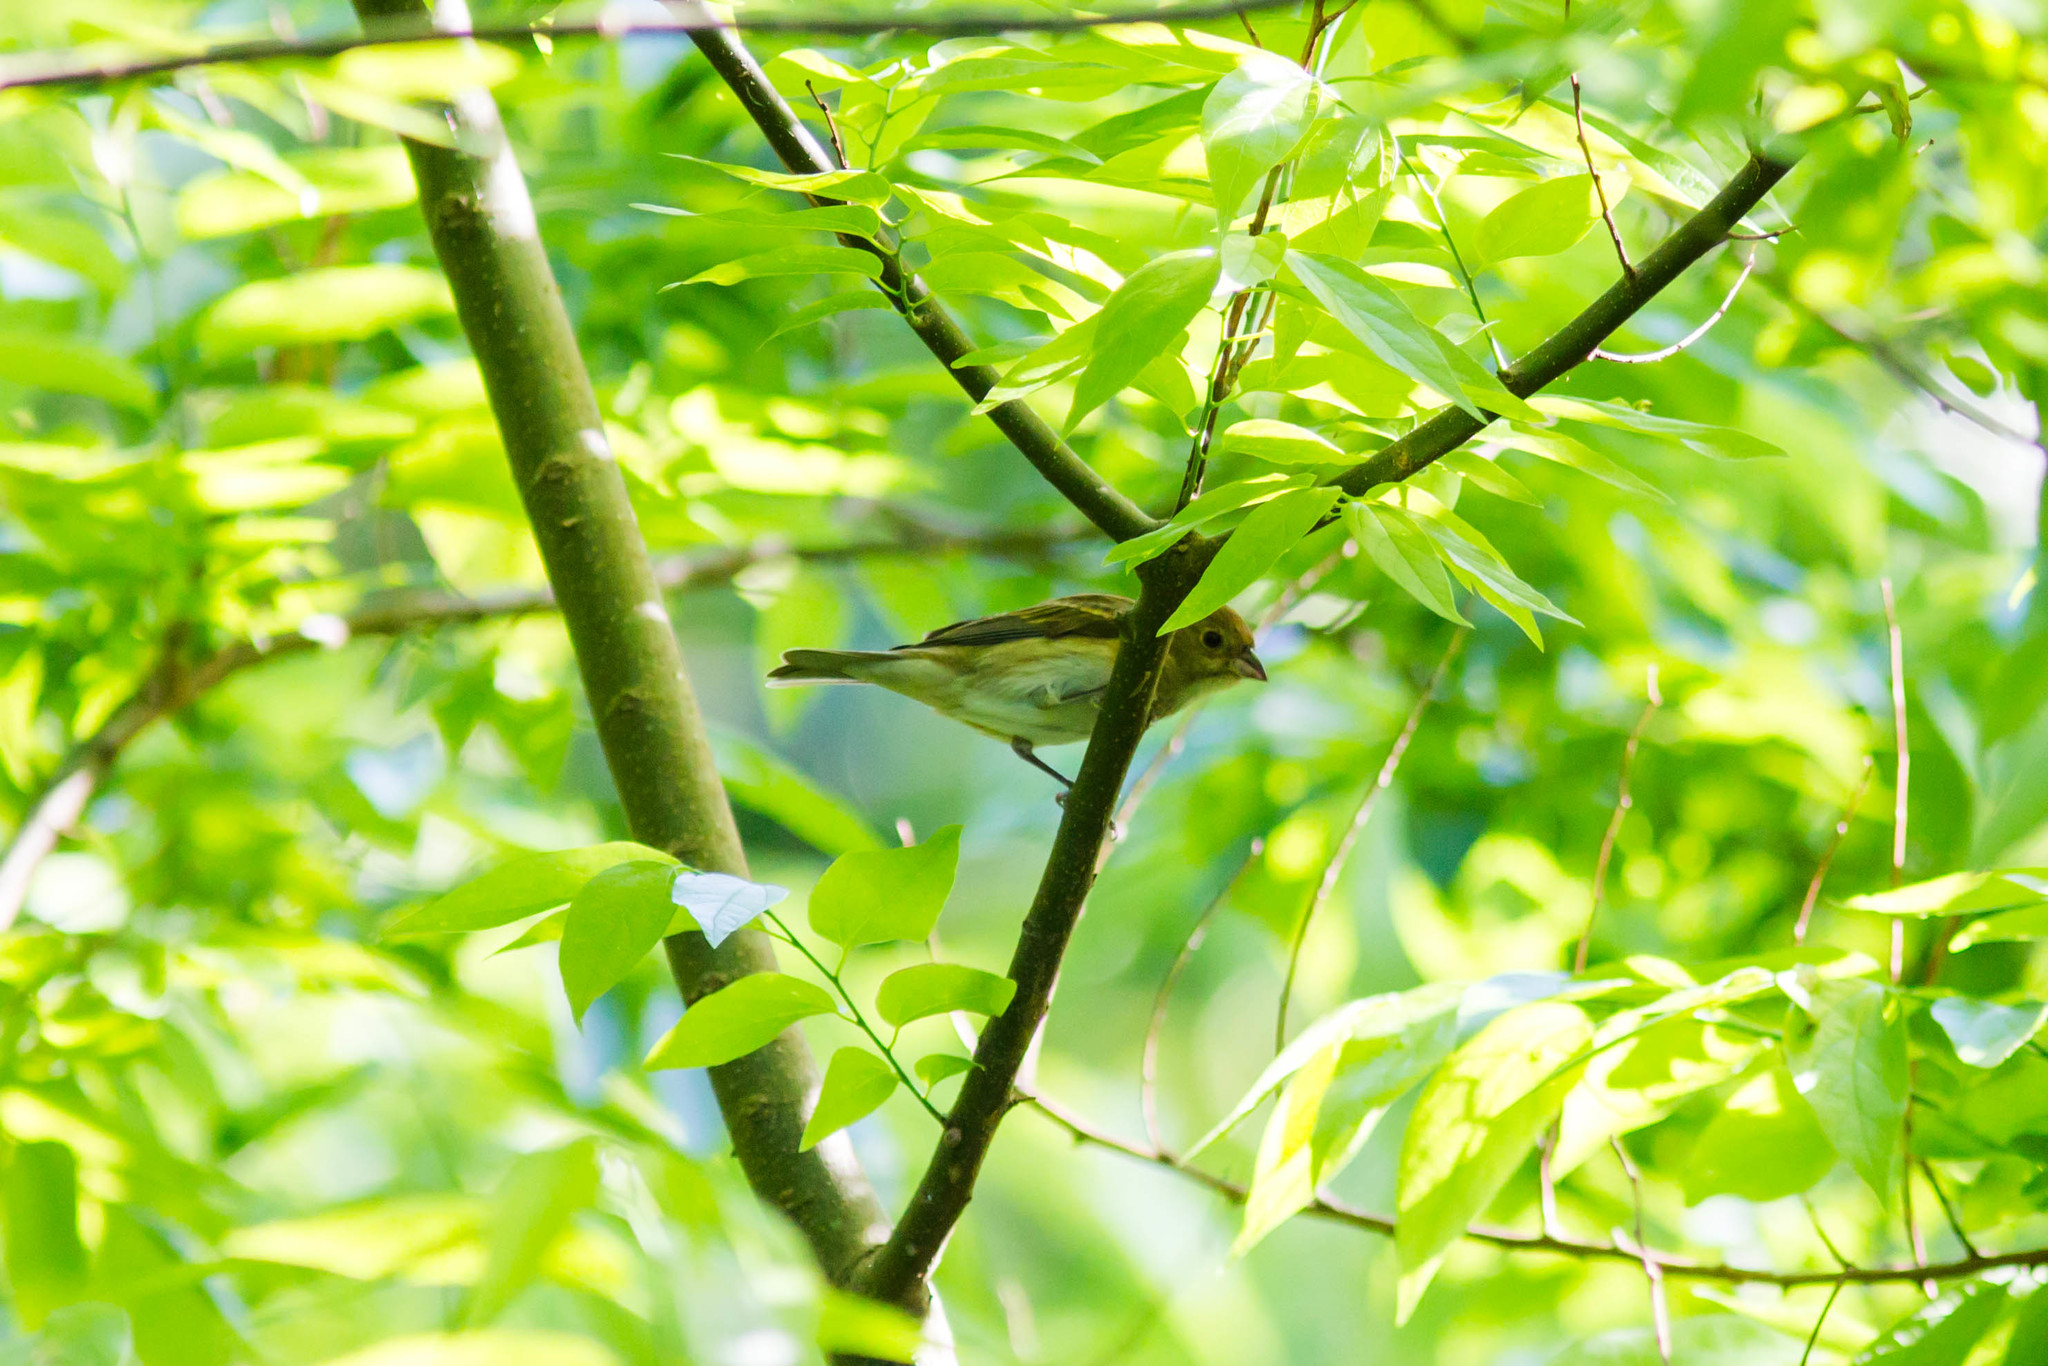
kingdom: Animalia
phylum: Chordata
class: Aves
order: Passeriformes
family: Cardinalidae
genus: Passerina
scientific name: Passerina cyanea
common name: Indigo bunting
